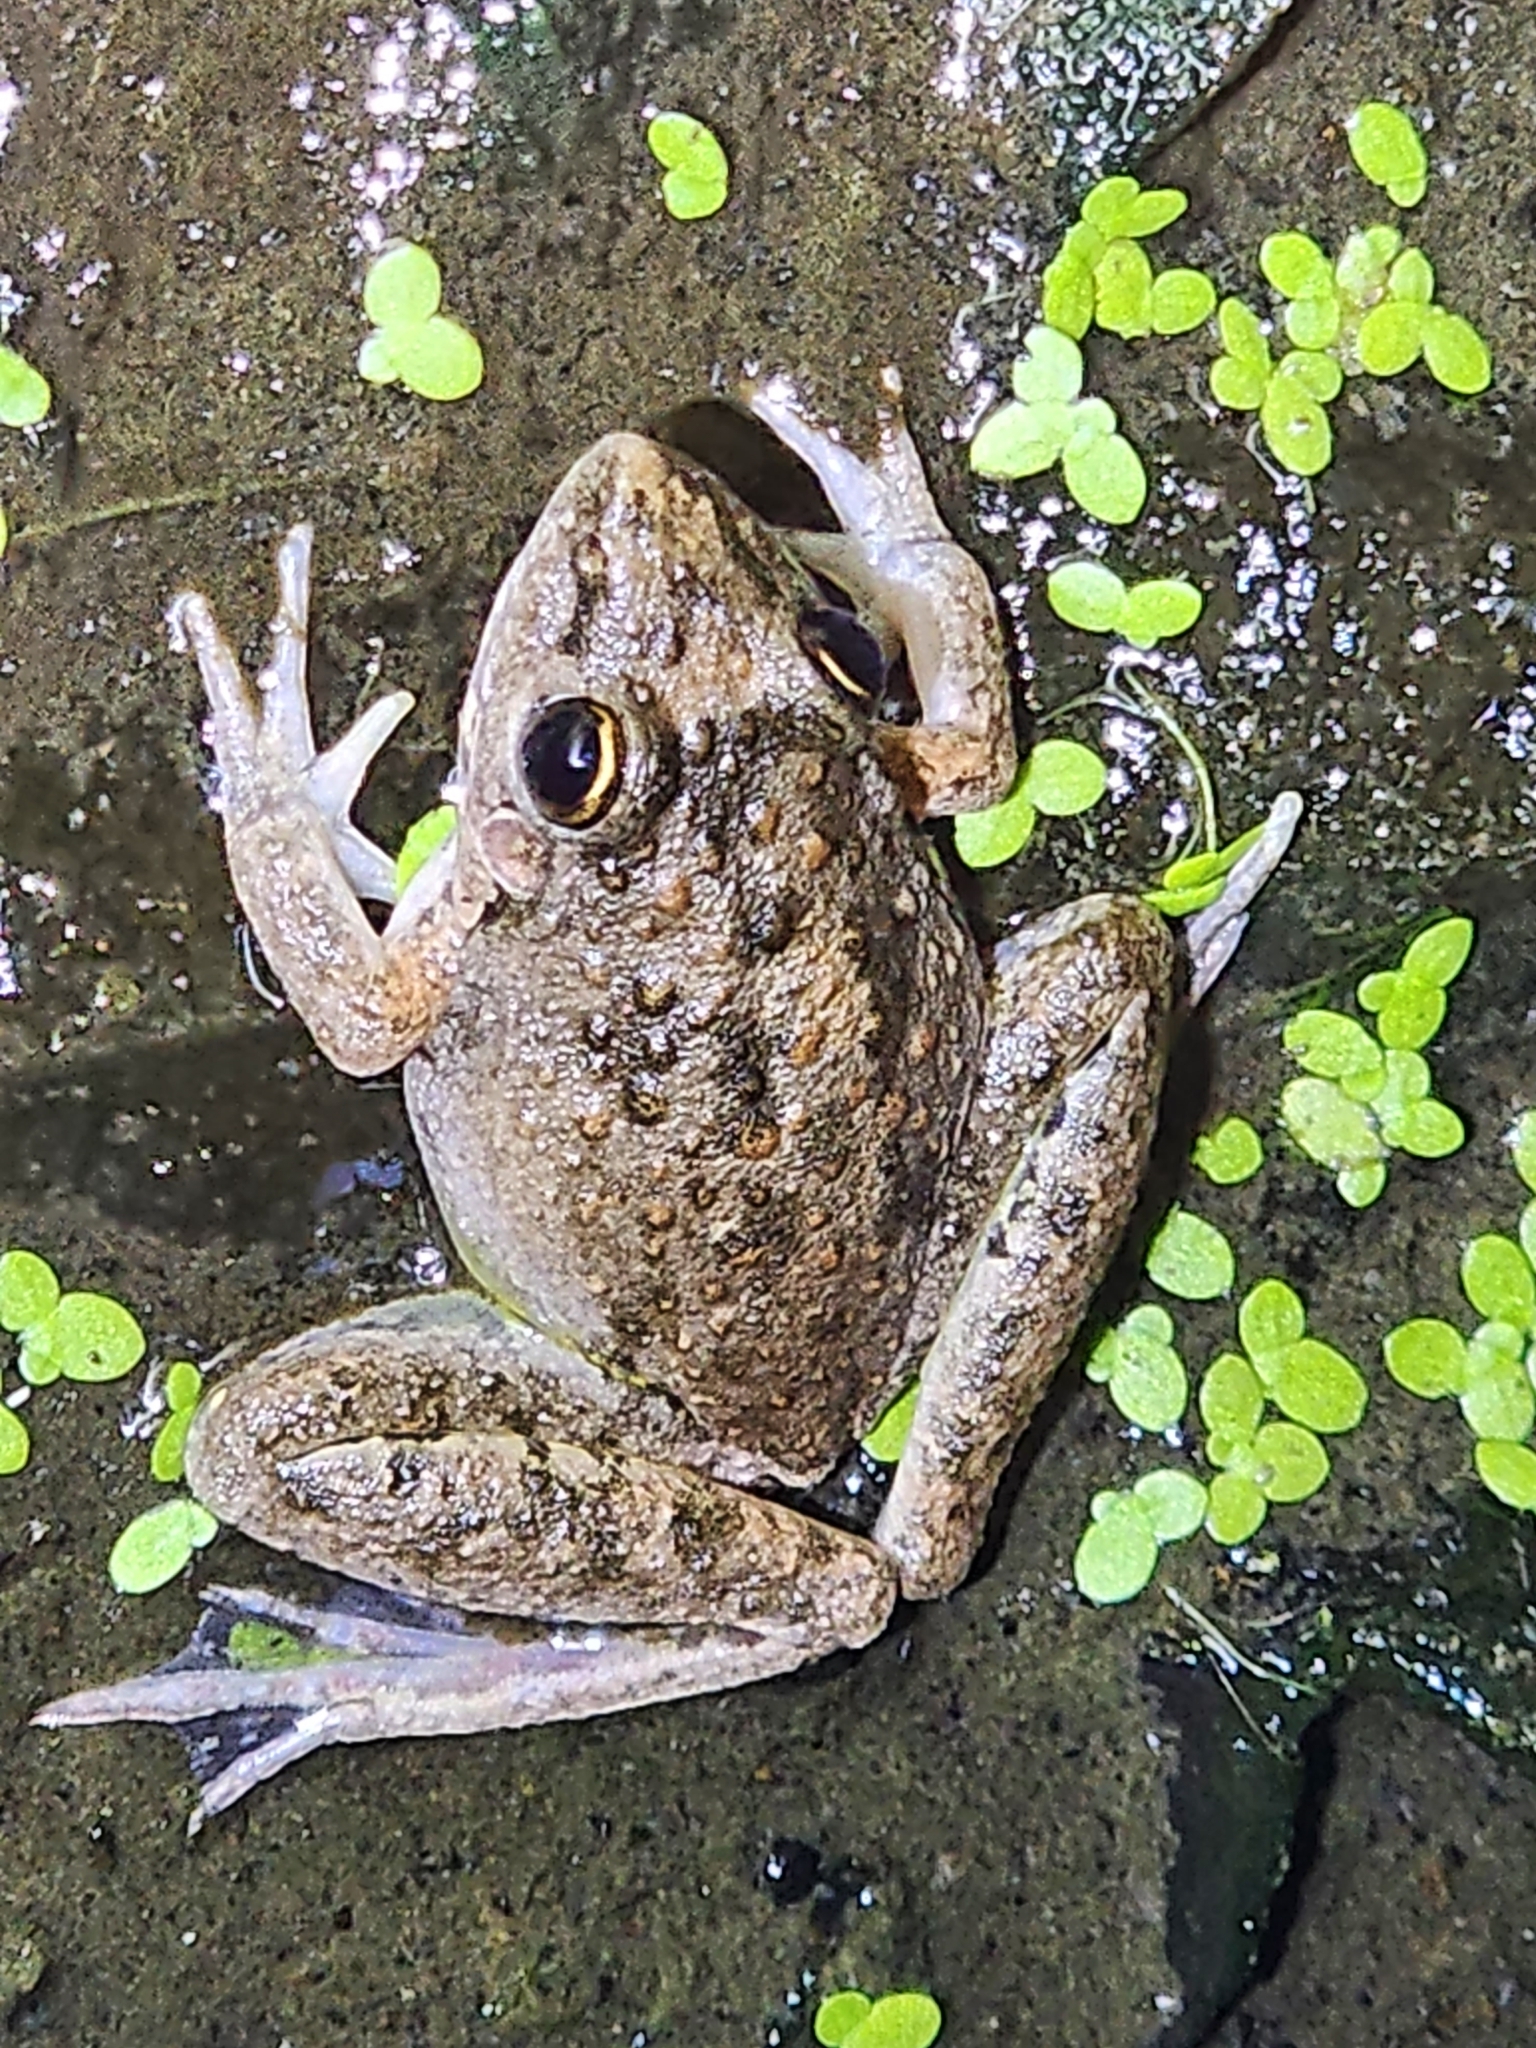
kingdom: Animalia
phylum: Chordata
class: Amphibia
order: Anura
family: Pelodryadidae
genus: Litoria
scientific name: Litoria inermis
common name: Bumpy rocket frog
